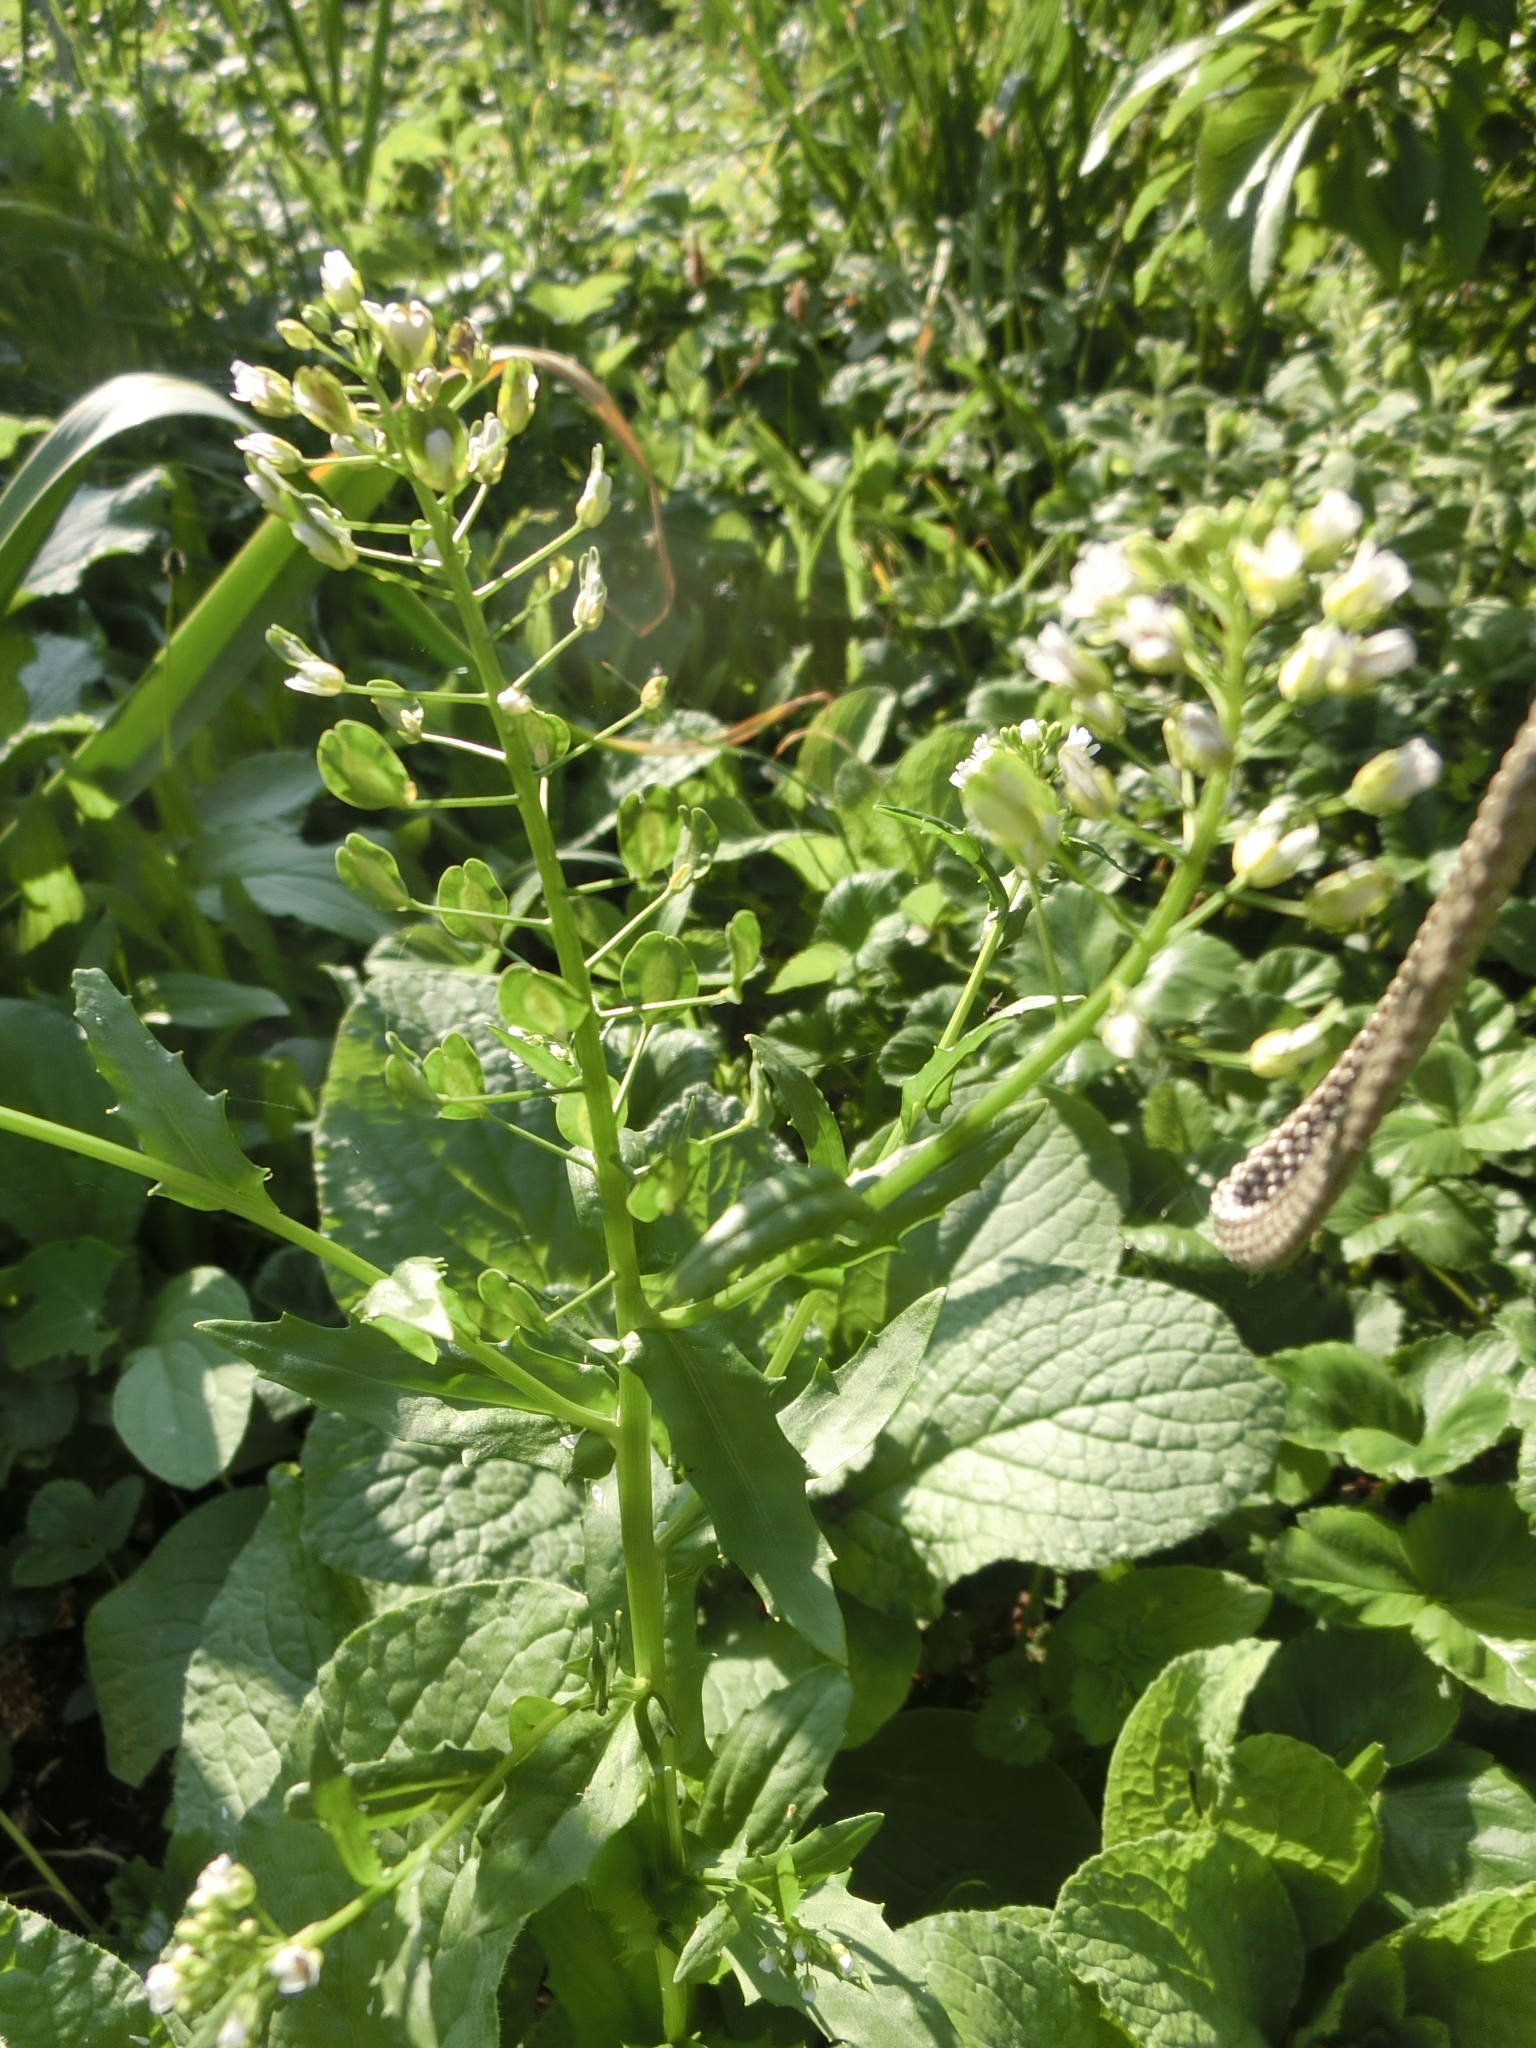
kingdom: Plantae
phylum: Tracheophyta
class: Magnoliopsida
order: Brassicales
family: Brassicaceae
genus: Thlaspi
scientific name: Thlaspi arvense
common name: Field pennycress
